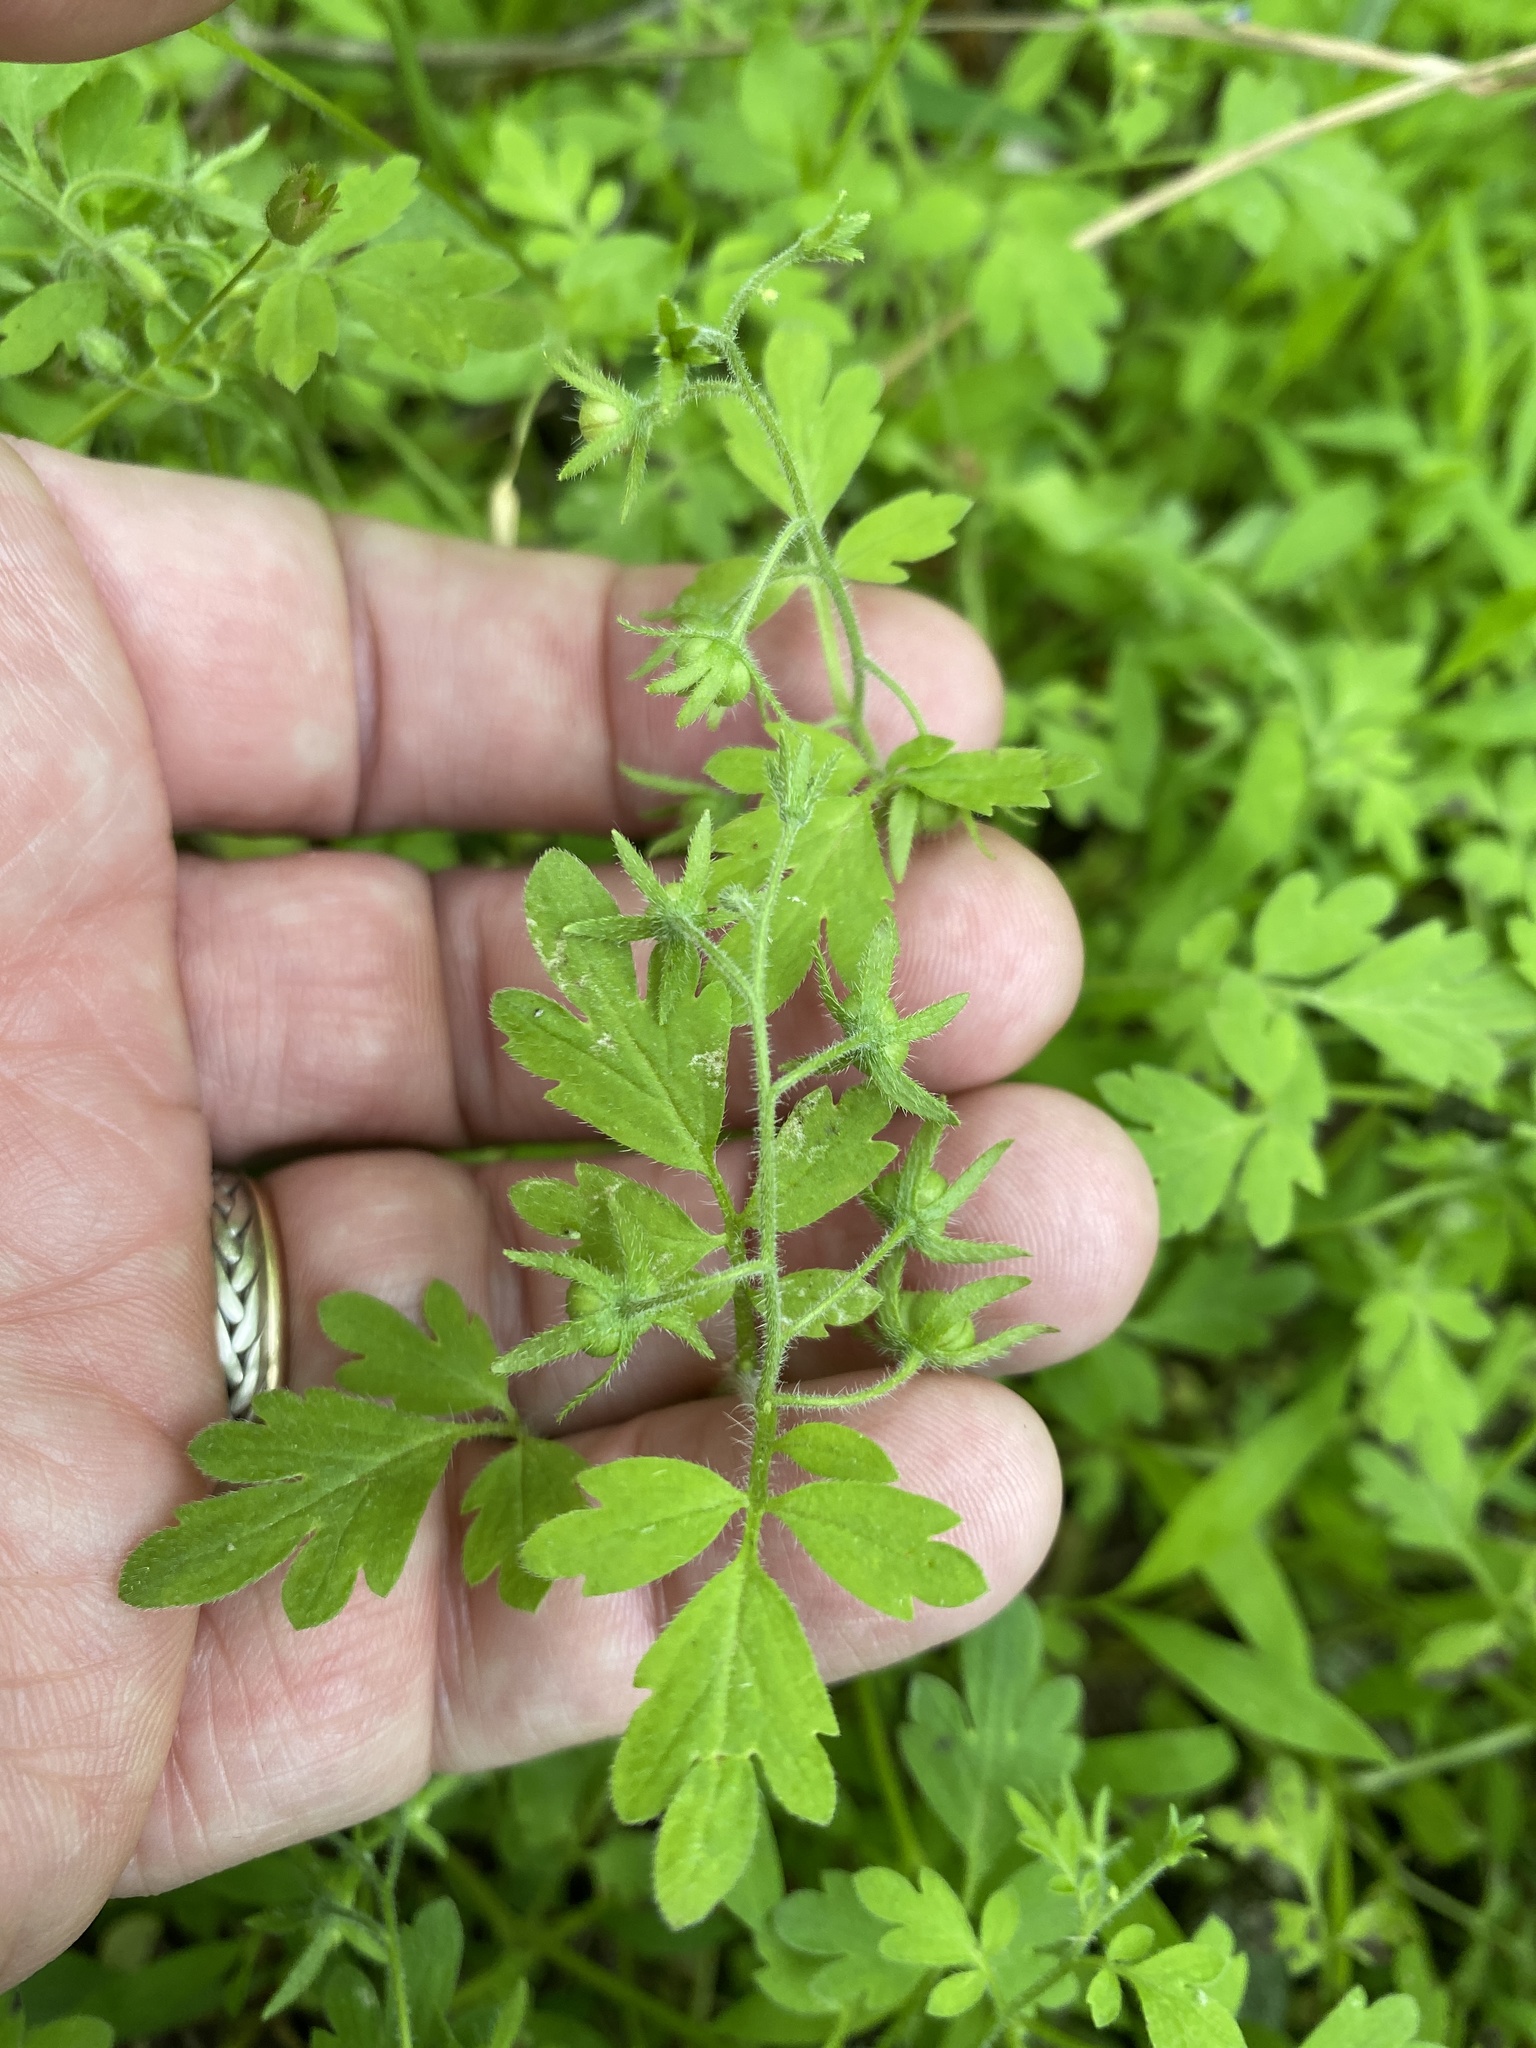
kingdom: Plantae
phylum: Tracheophyta
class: Magnoliopsida
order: Boraginales
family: Hydrophyllaceae
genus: Phacelia
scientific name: Phacelia covillei
